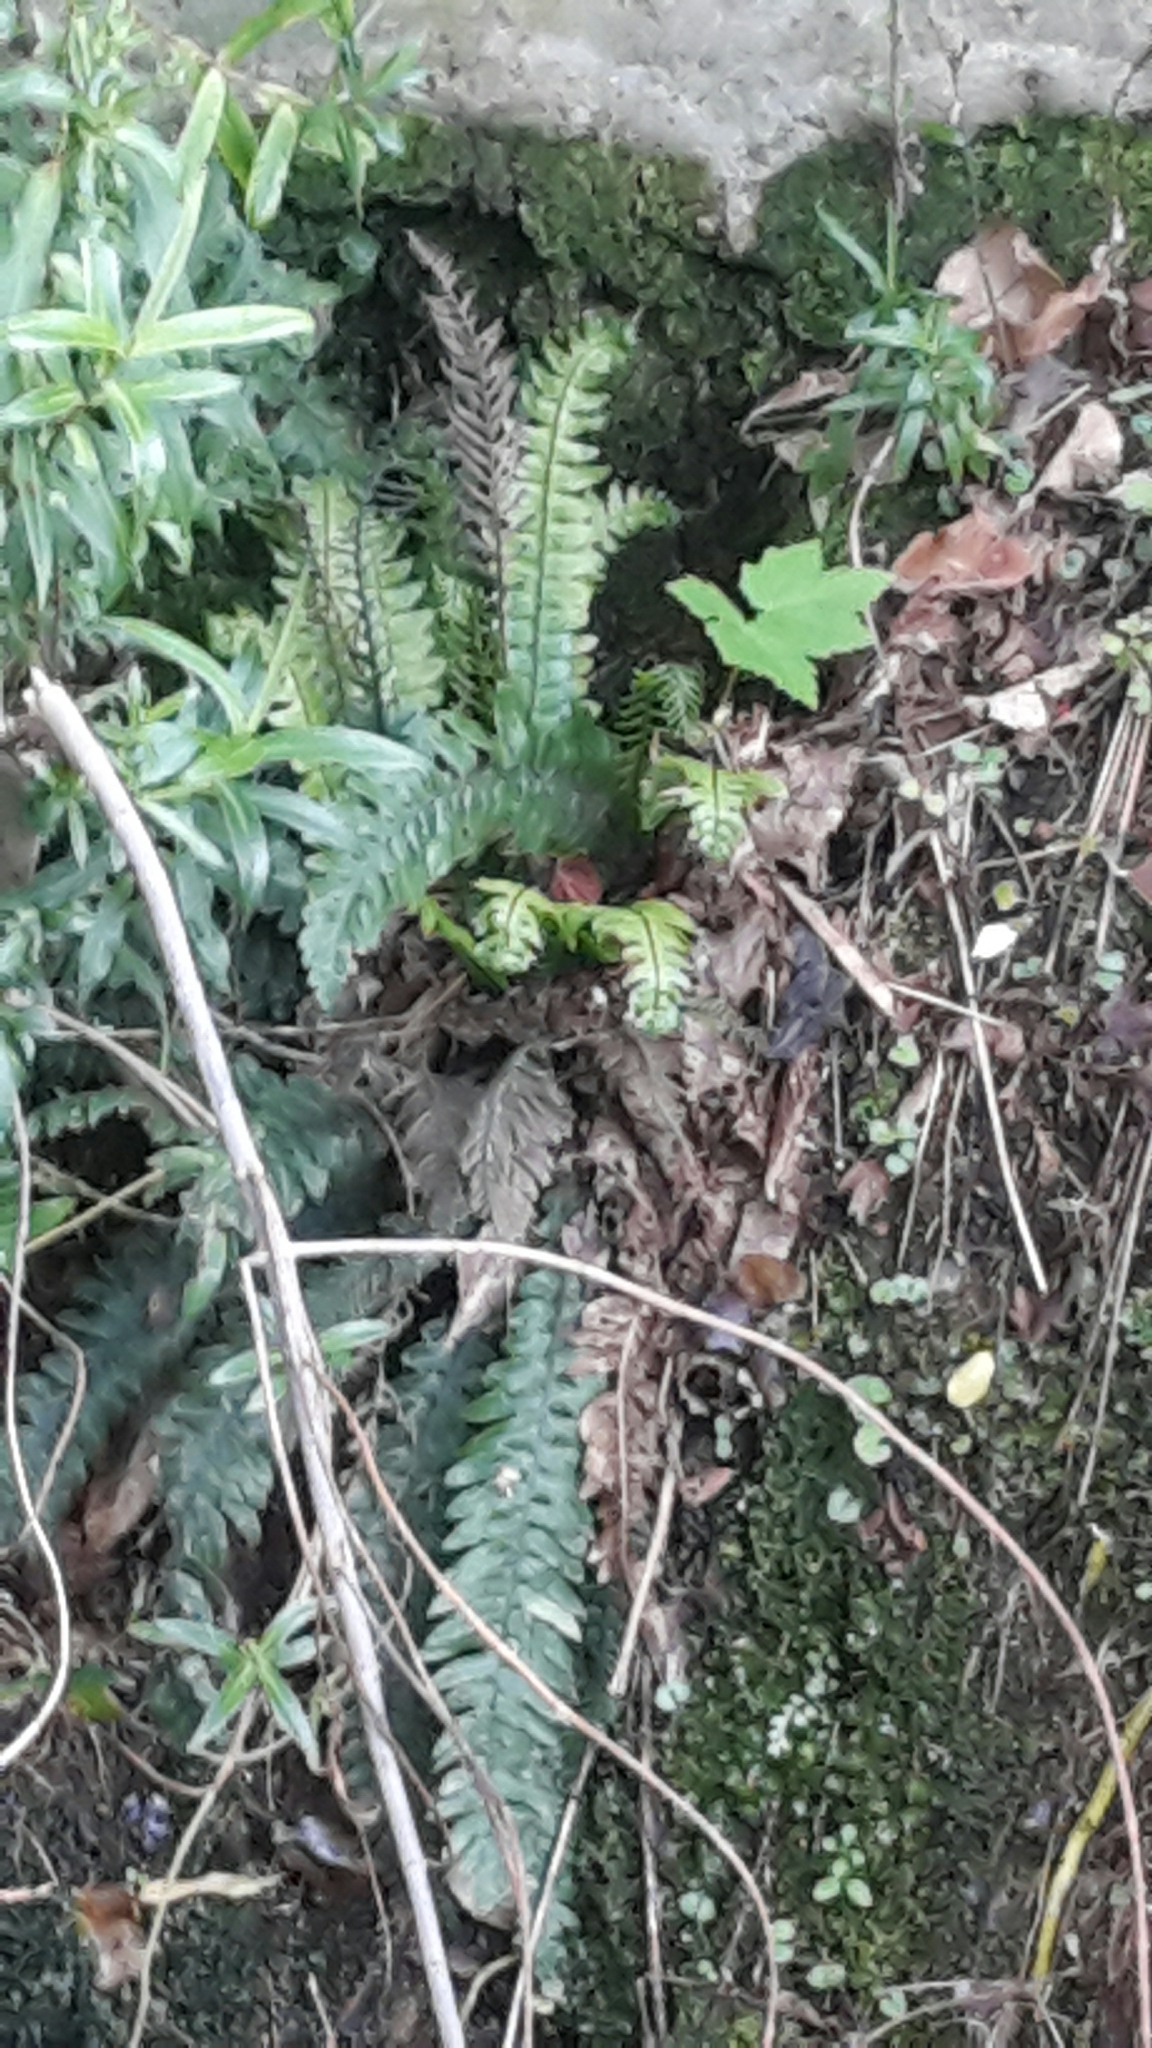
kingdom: Plantae
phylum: Tracheophyta
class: Polypodiopsida
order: Polypodiales
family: Blechnaceae
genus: Austroblechnum
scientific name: Austroblechnum lanceolatum
